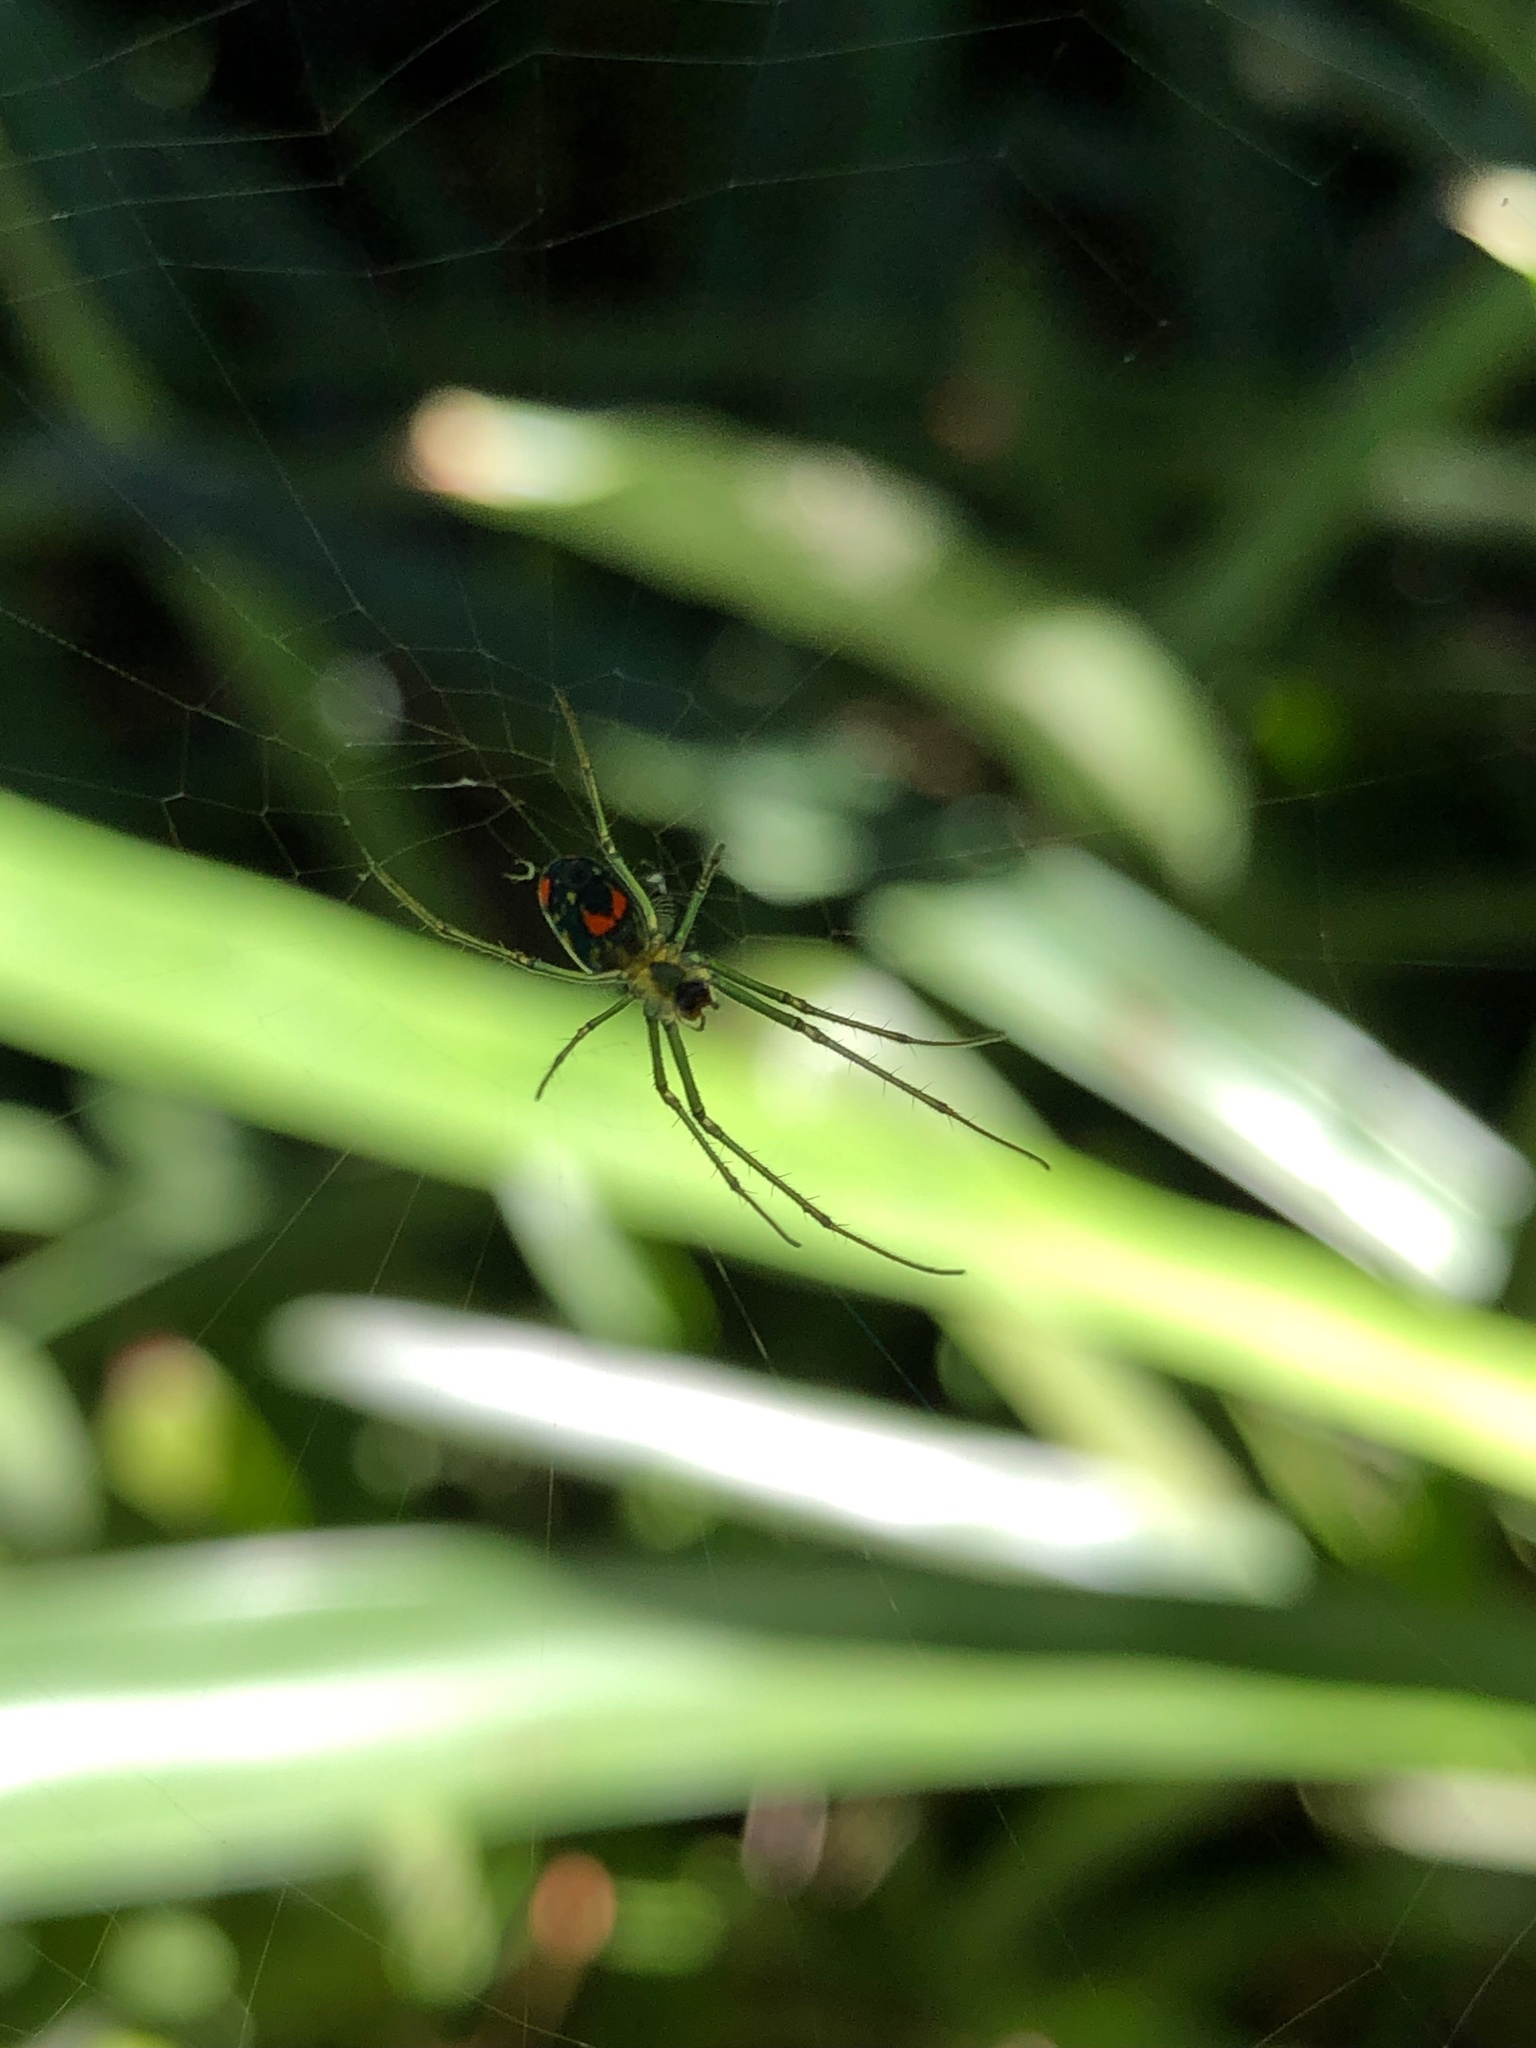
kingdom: Animalia
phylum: Arthropoda
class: Arachnida
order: Araneae
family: Tetragnathidae
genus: Leucauge
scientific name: Leucauge argyrobapta
